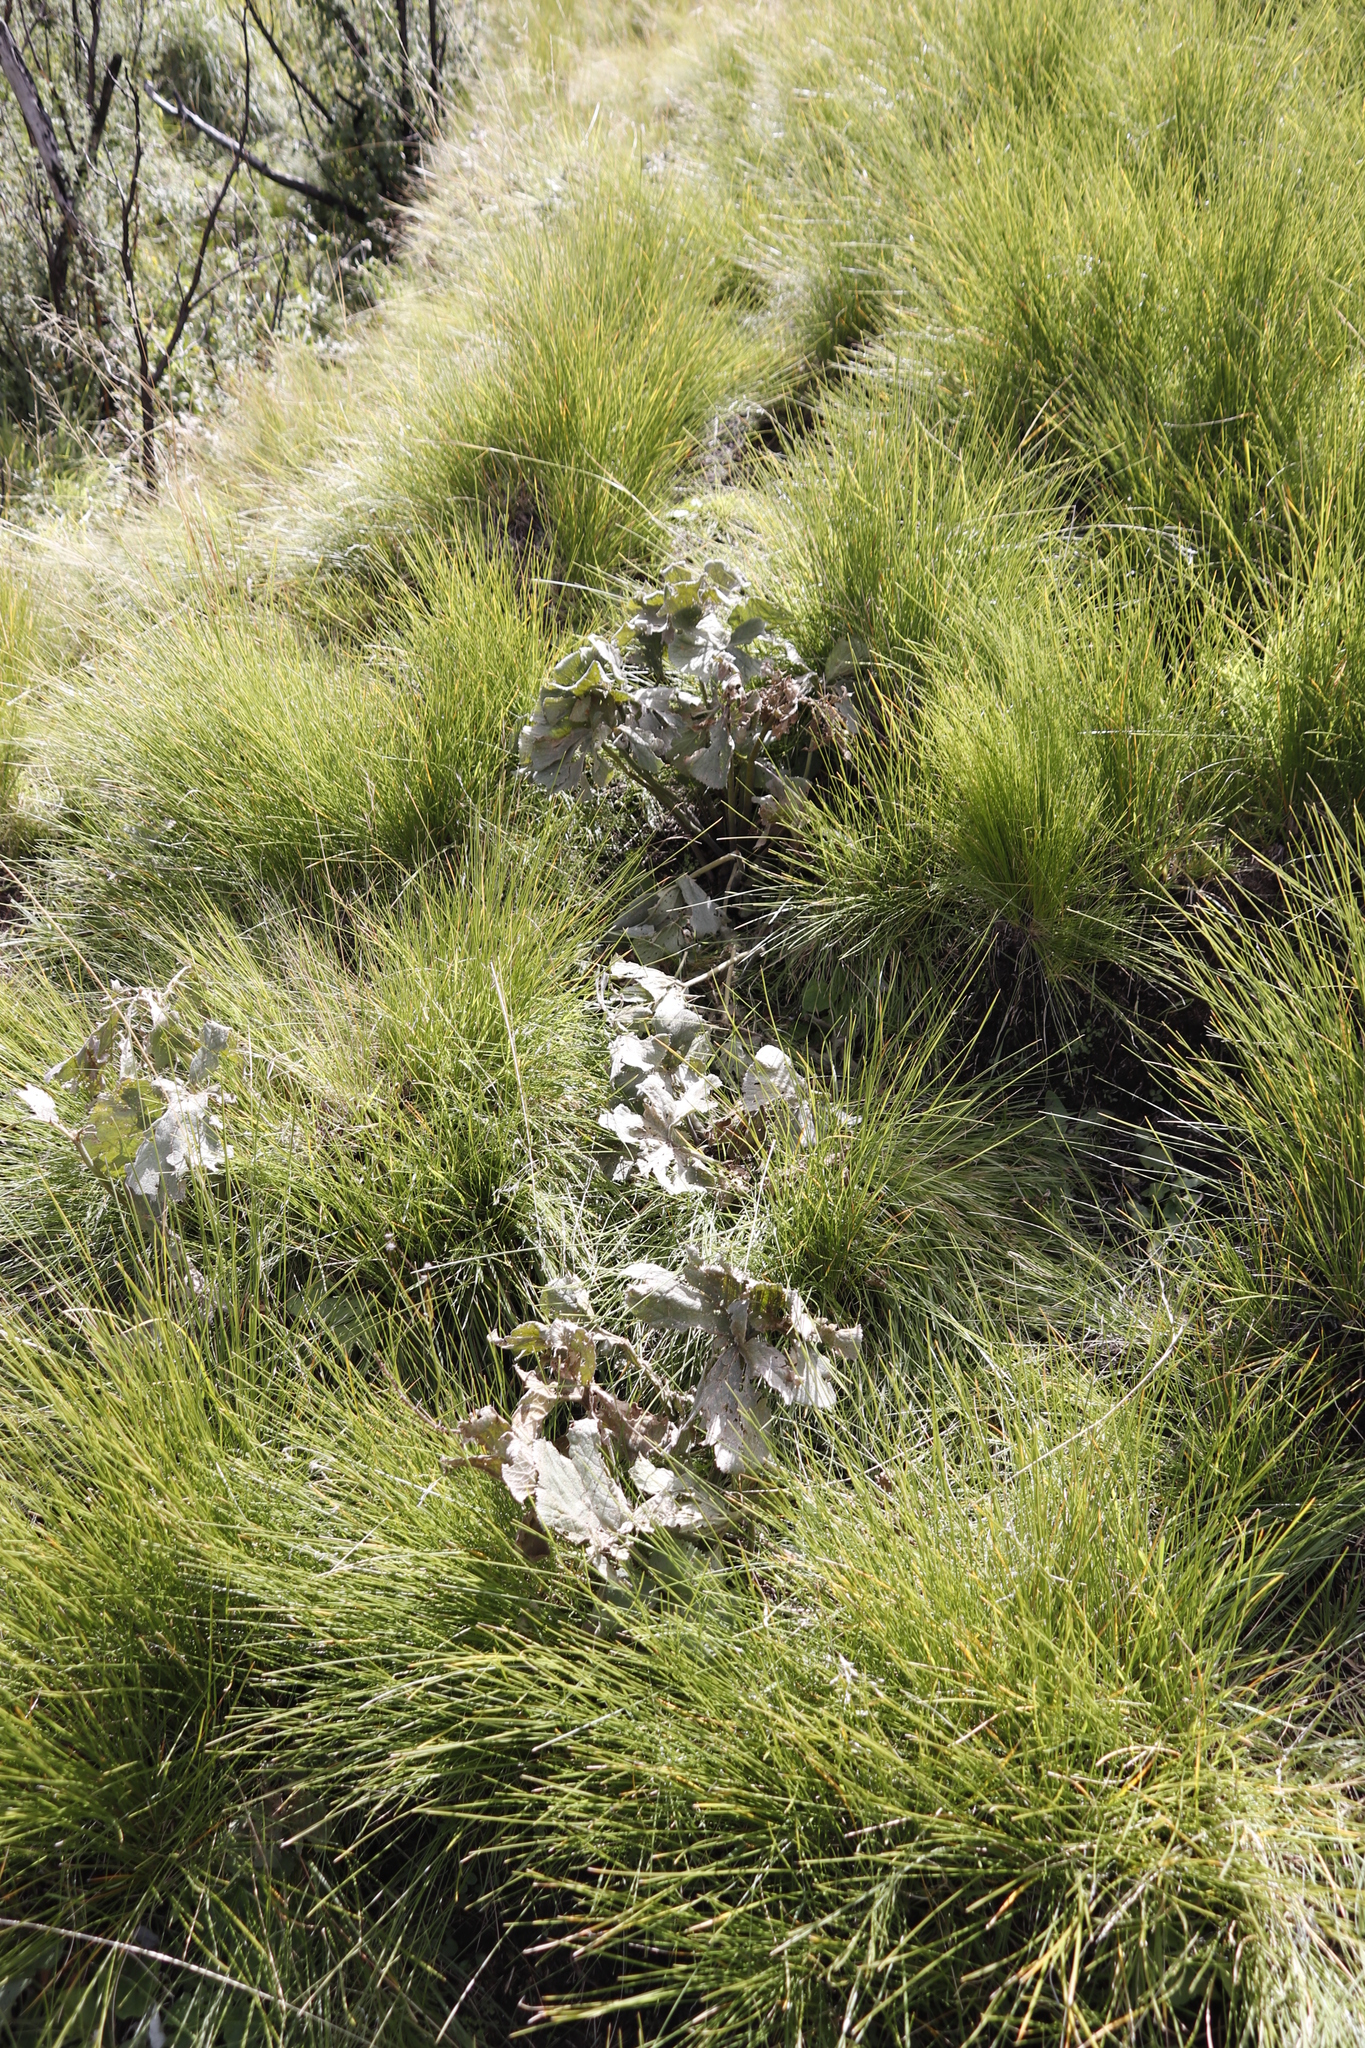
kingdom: Plantae
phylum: Tracheophyta
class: Magnoliopsida
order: Gunnerales
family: Gunneraceae
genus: Gunnera
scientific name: Gunnera perpensa
